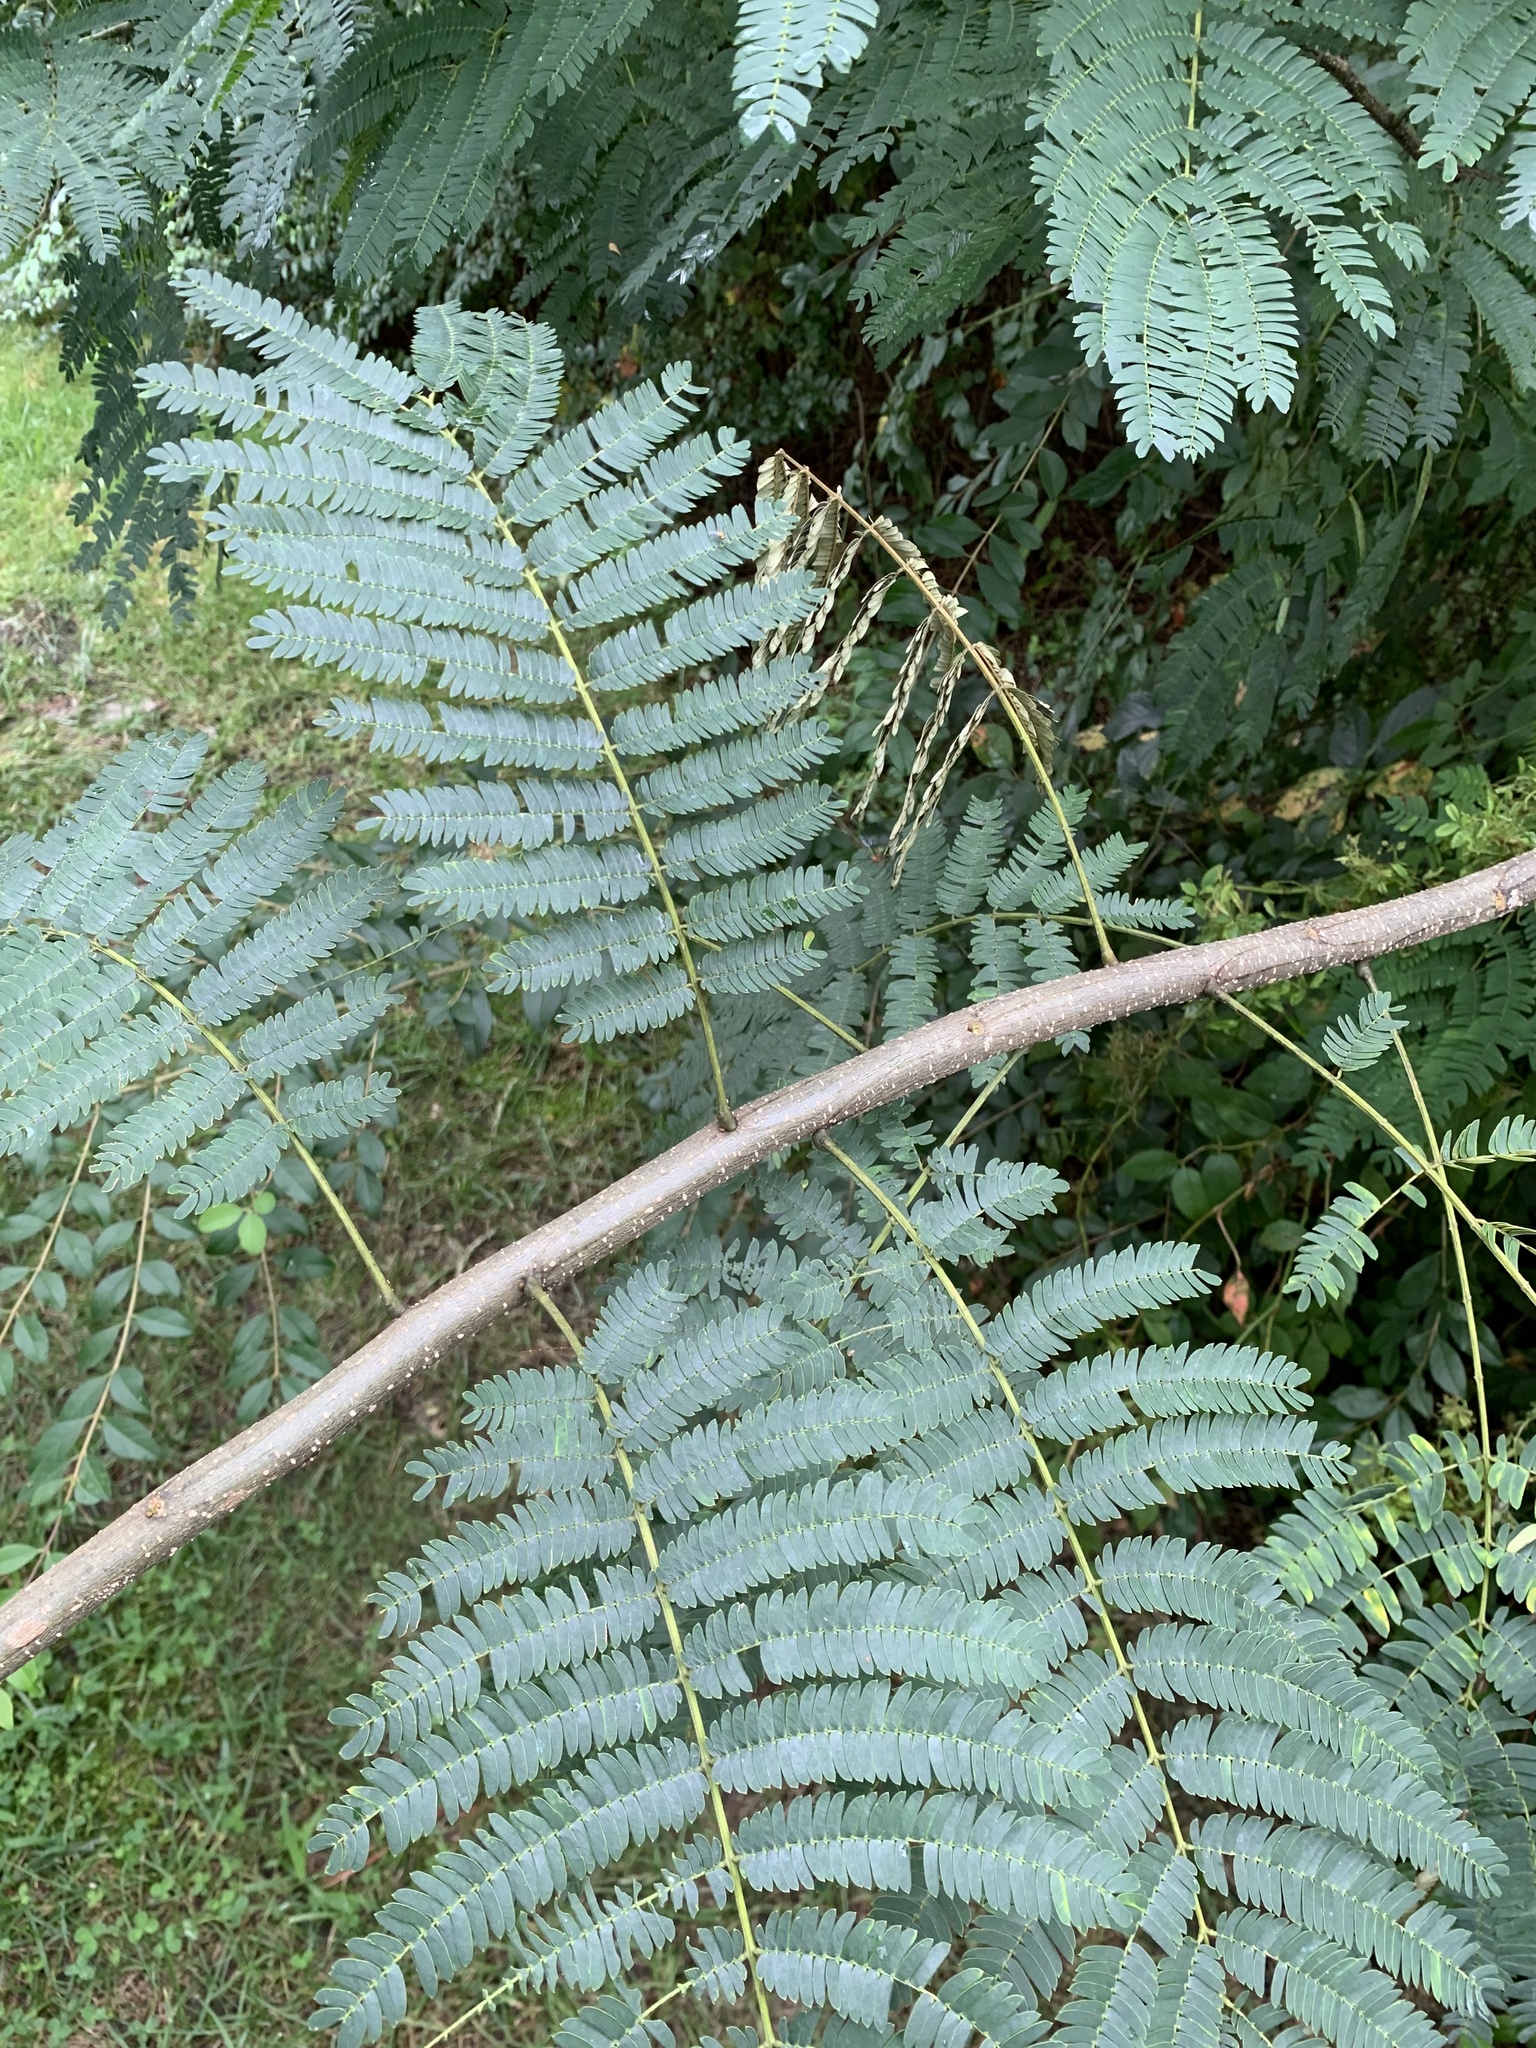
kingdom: Plantae
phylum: Tracheophyta
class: Magnoliopsida
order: Fabales
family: Fabaceae
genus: Albizia
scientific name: Albizia julibrissin
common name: Silktree
